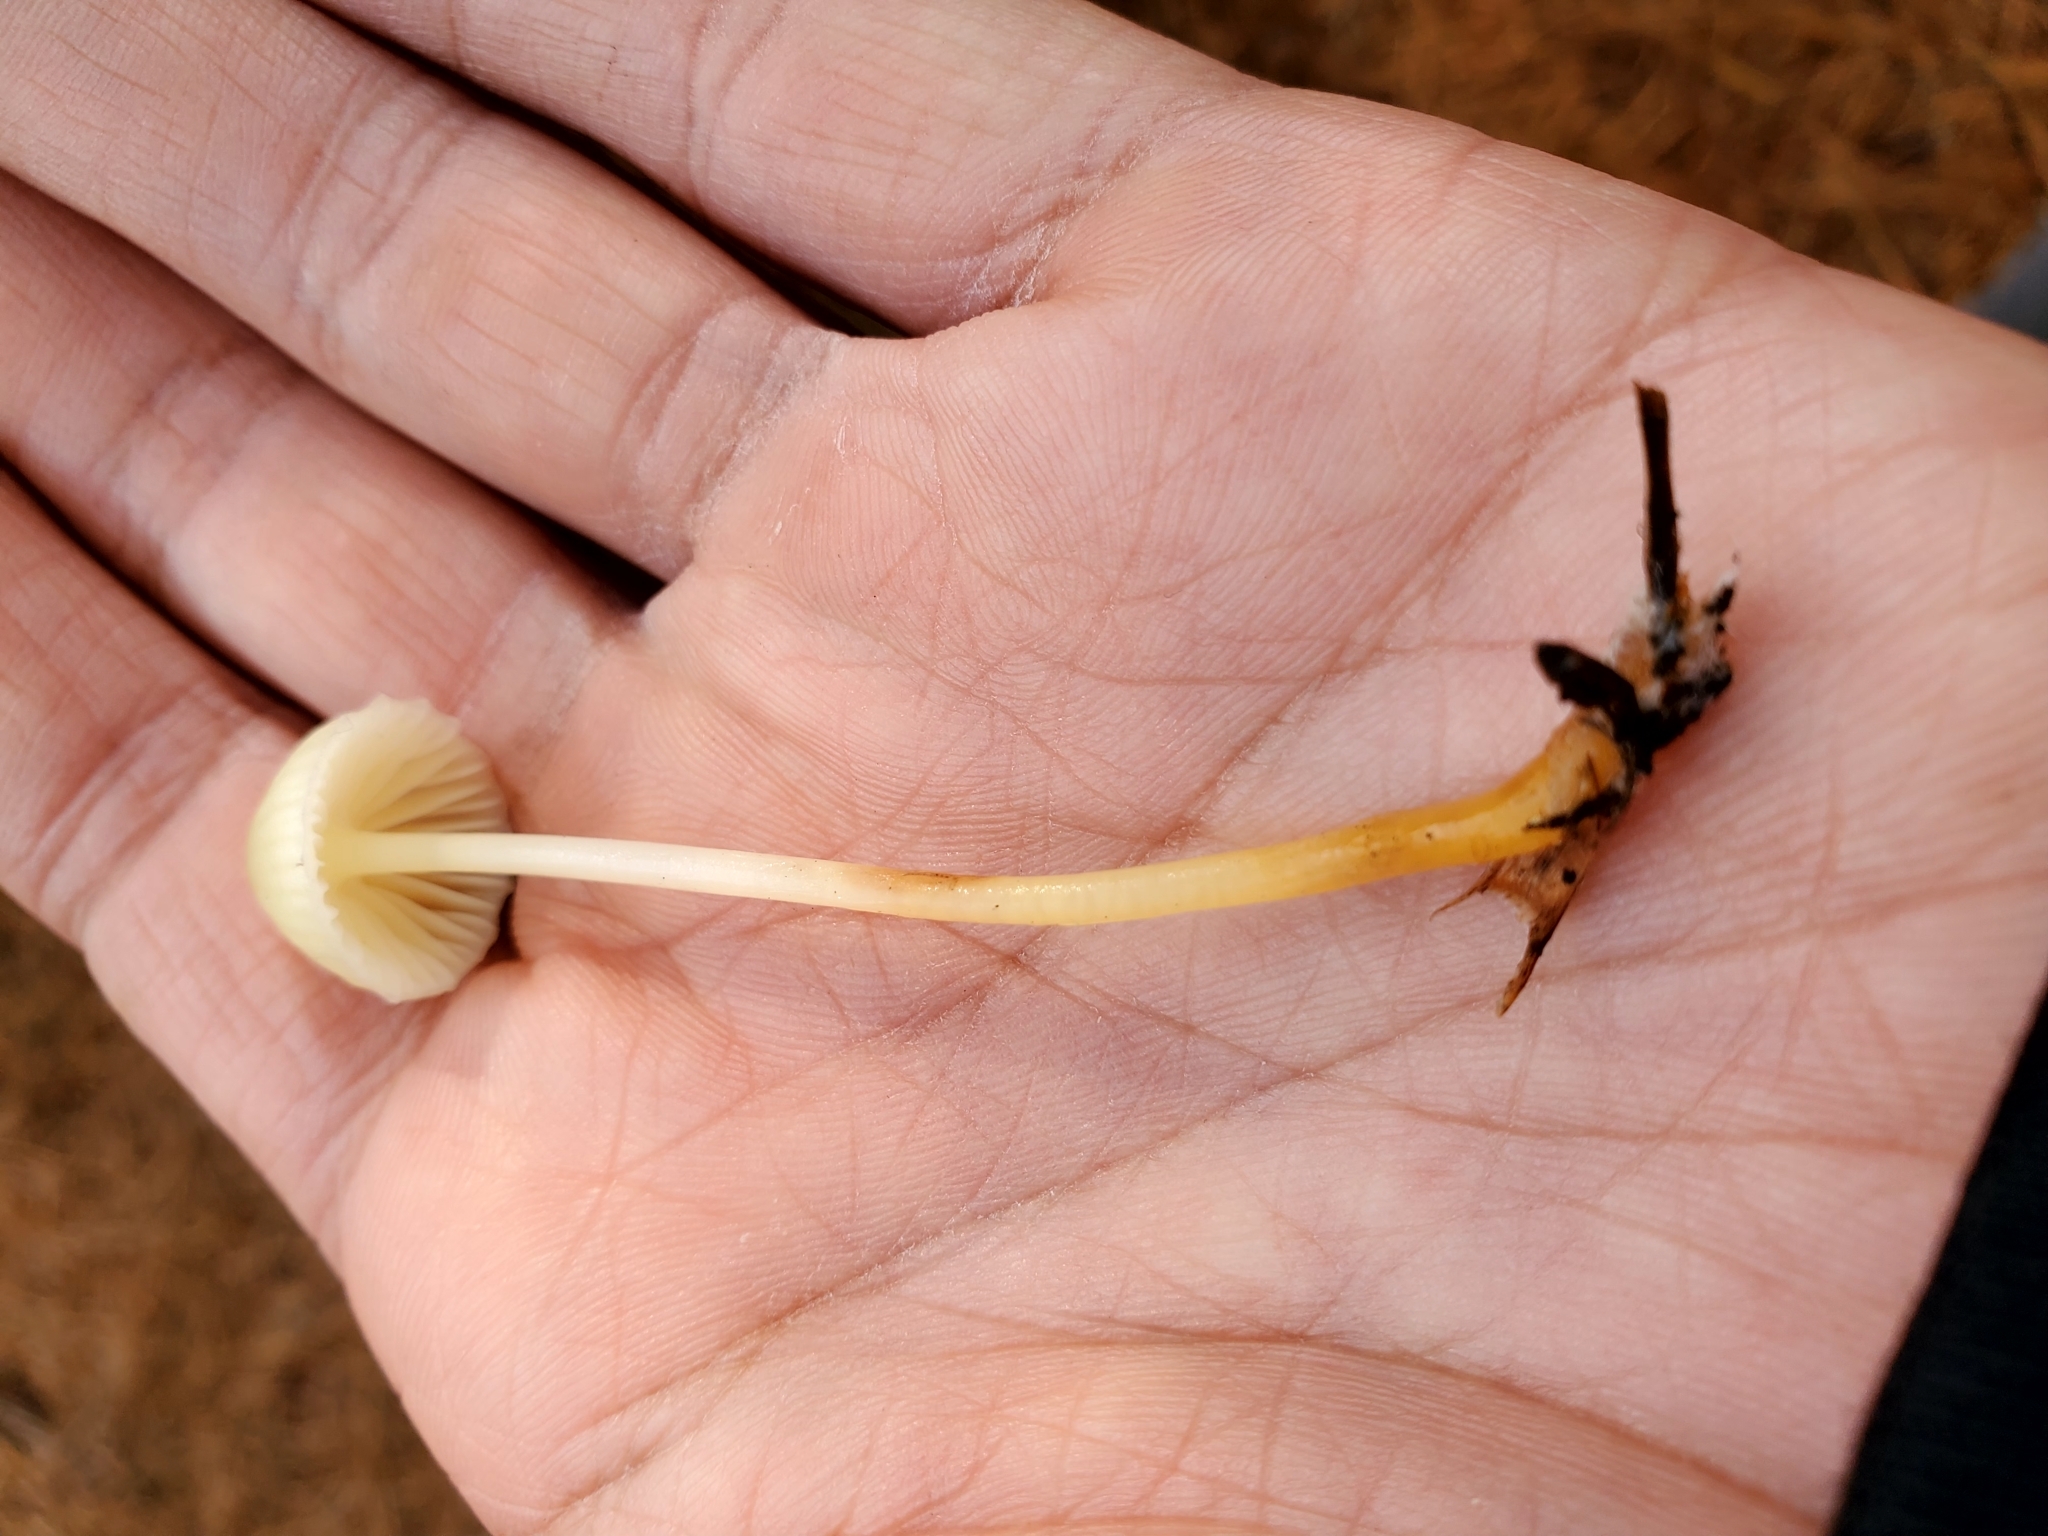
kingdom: Fungi
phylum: Basidiomycota
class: Agaricomycetes
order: Agaricales
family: Mycenaceae
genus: Mycena
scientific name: Mycena epipterygia
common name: Yellowleg bonnet
